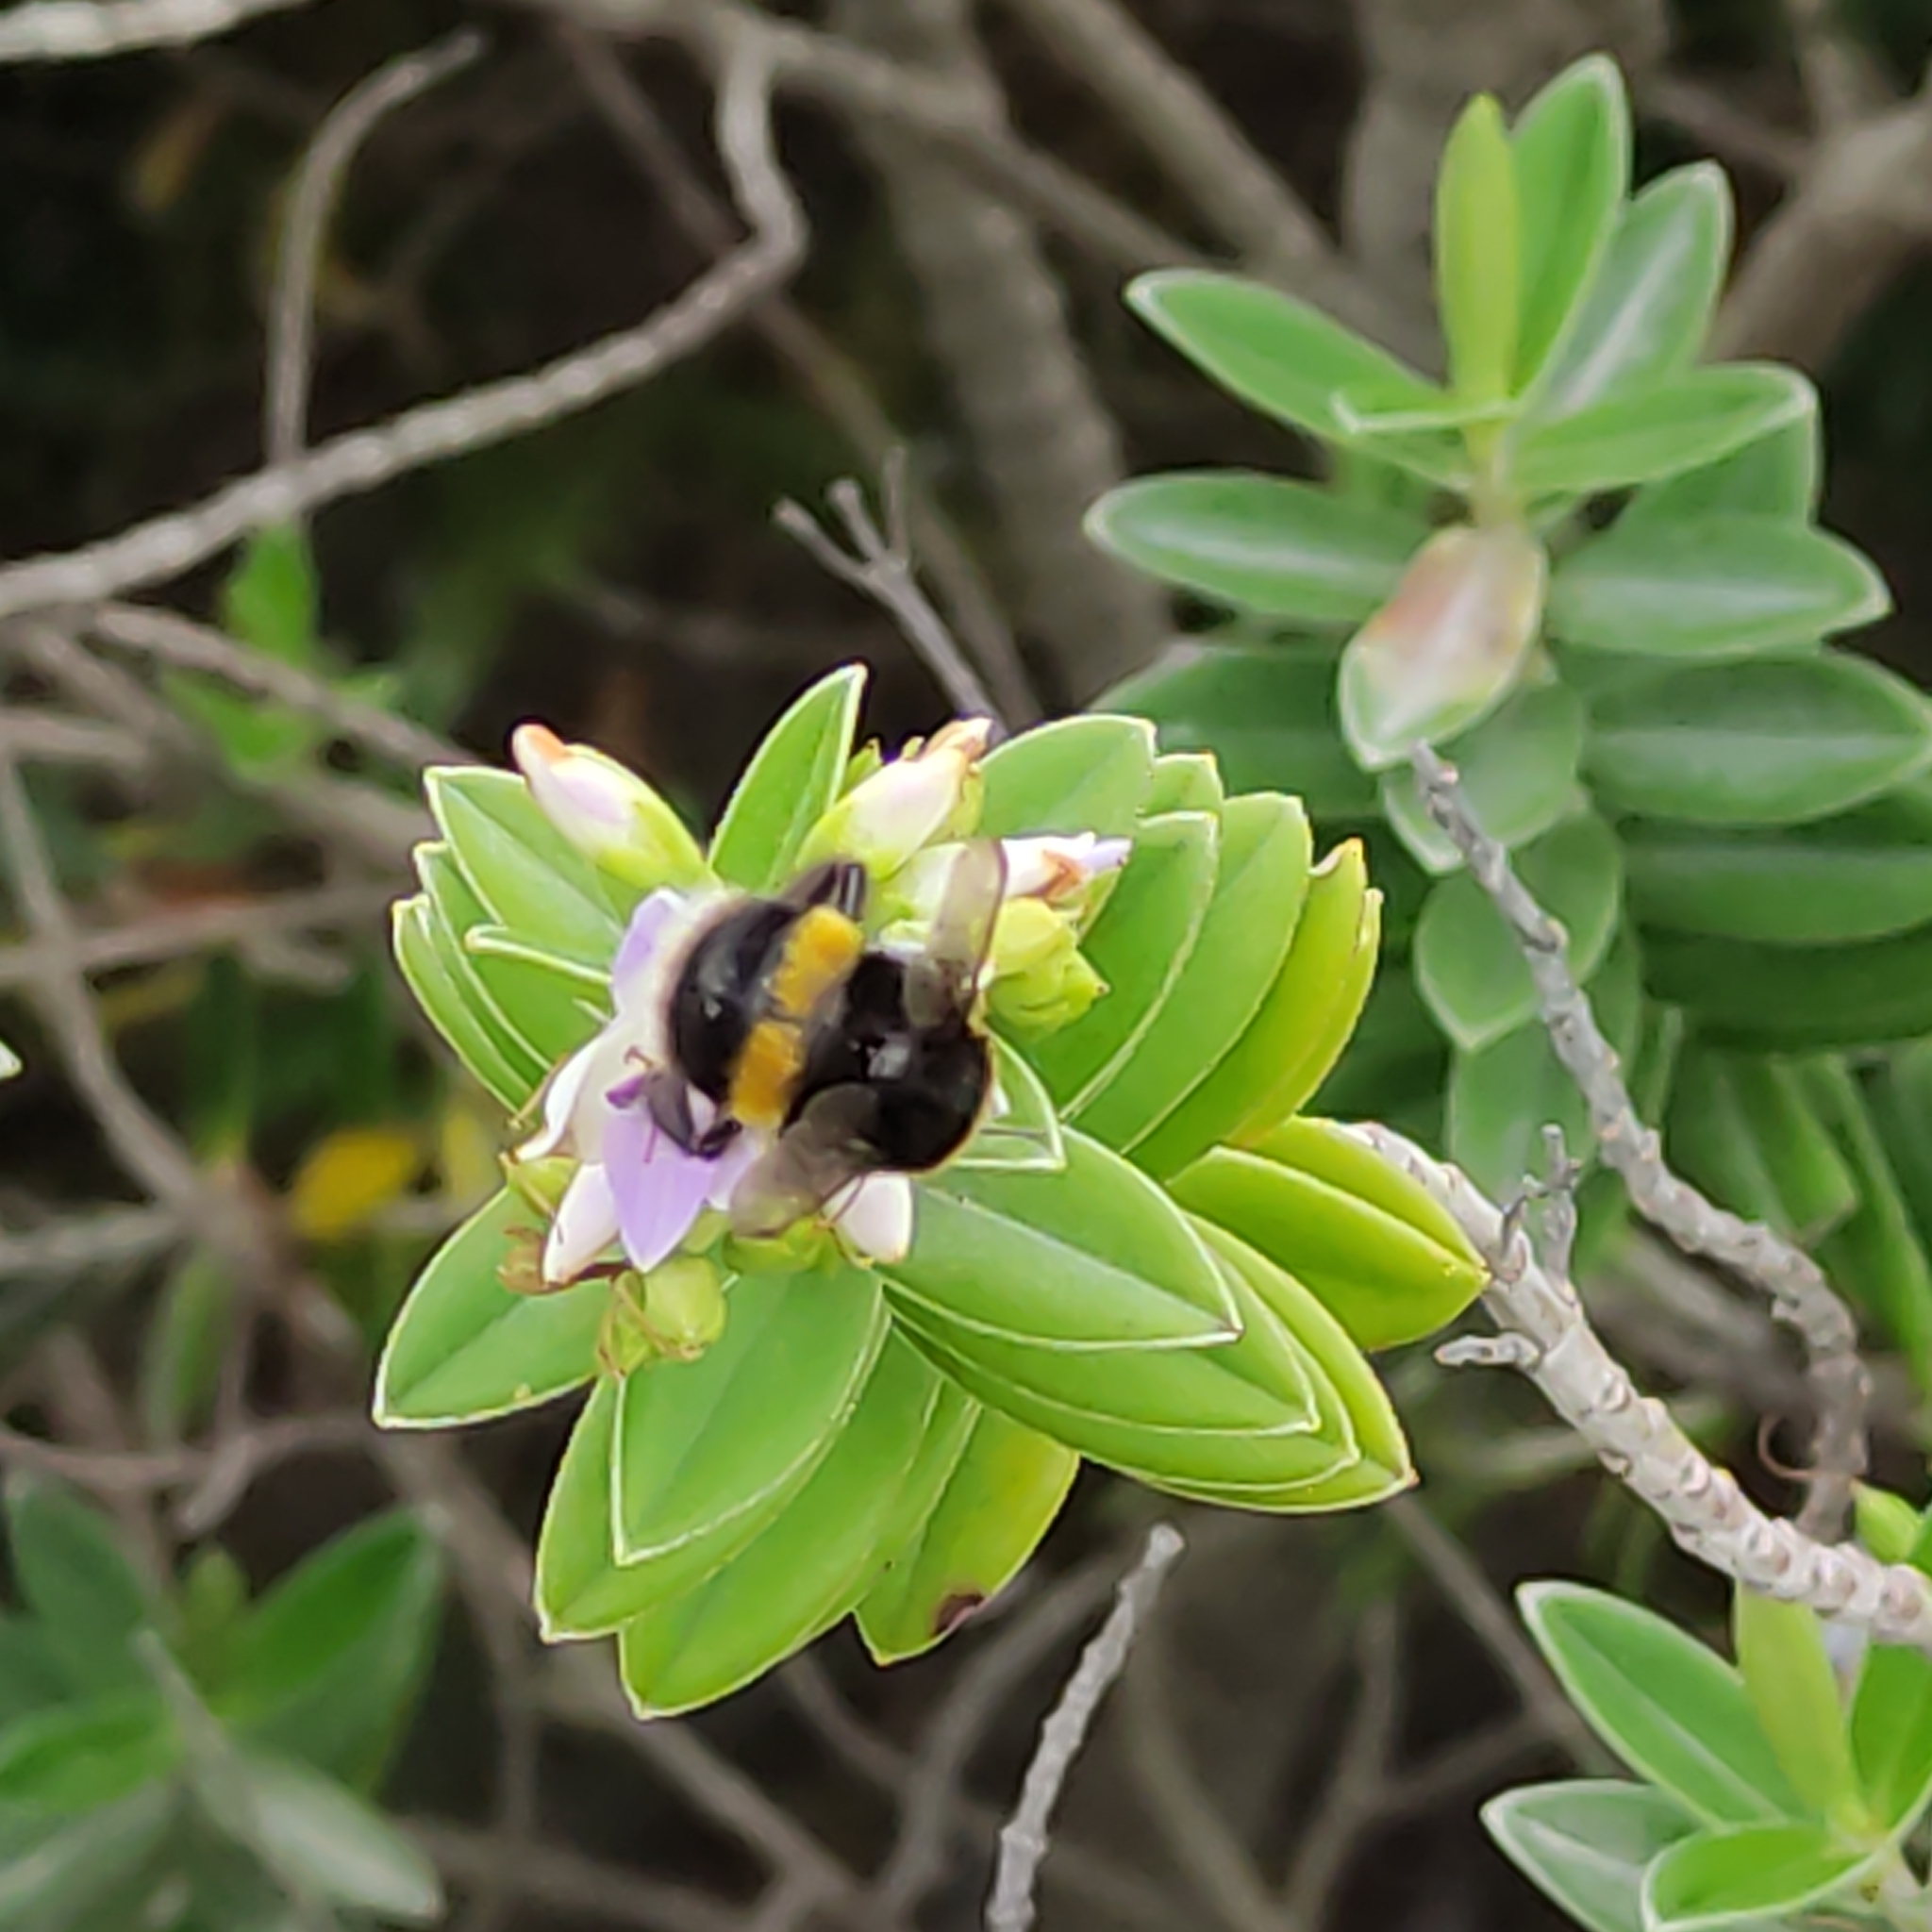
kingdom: Animalia
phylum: Arthropoda
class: Insecta
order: Hymenoptera
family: Apidae
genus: Bombus
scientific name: Bombus terrestris
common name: Buff-tailed bumblebee
